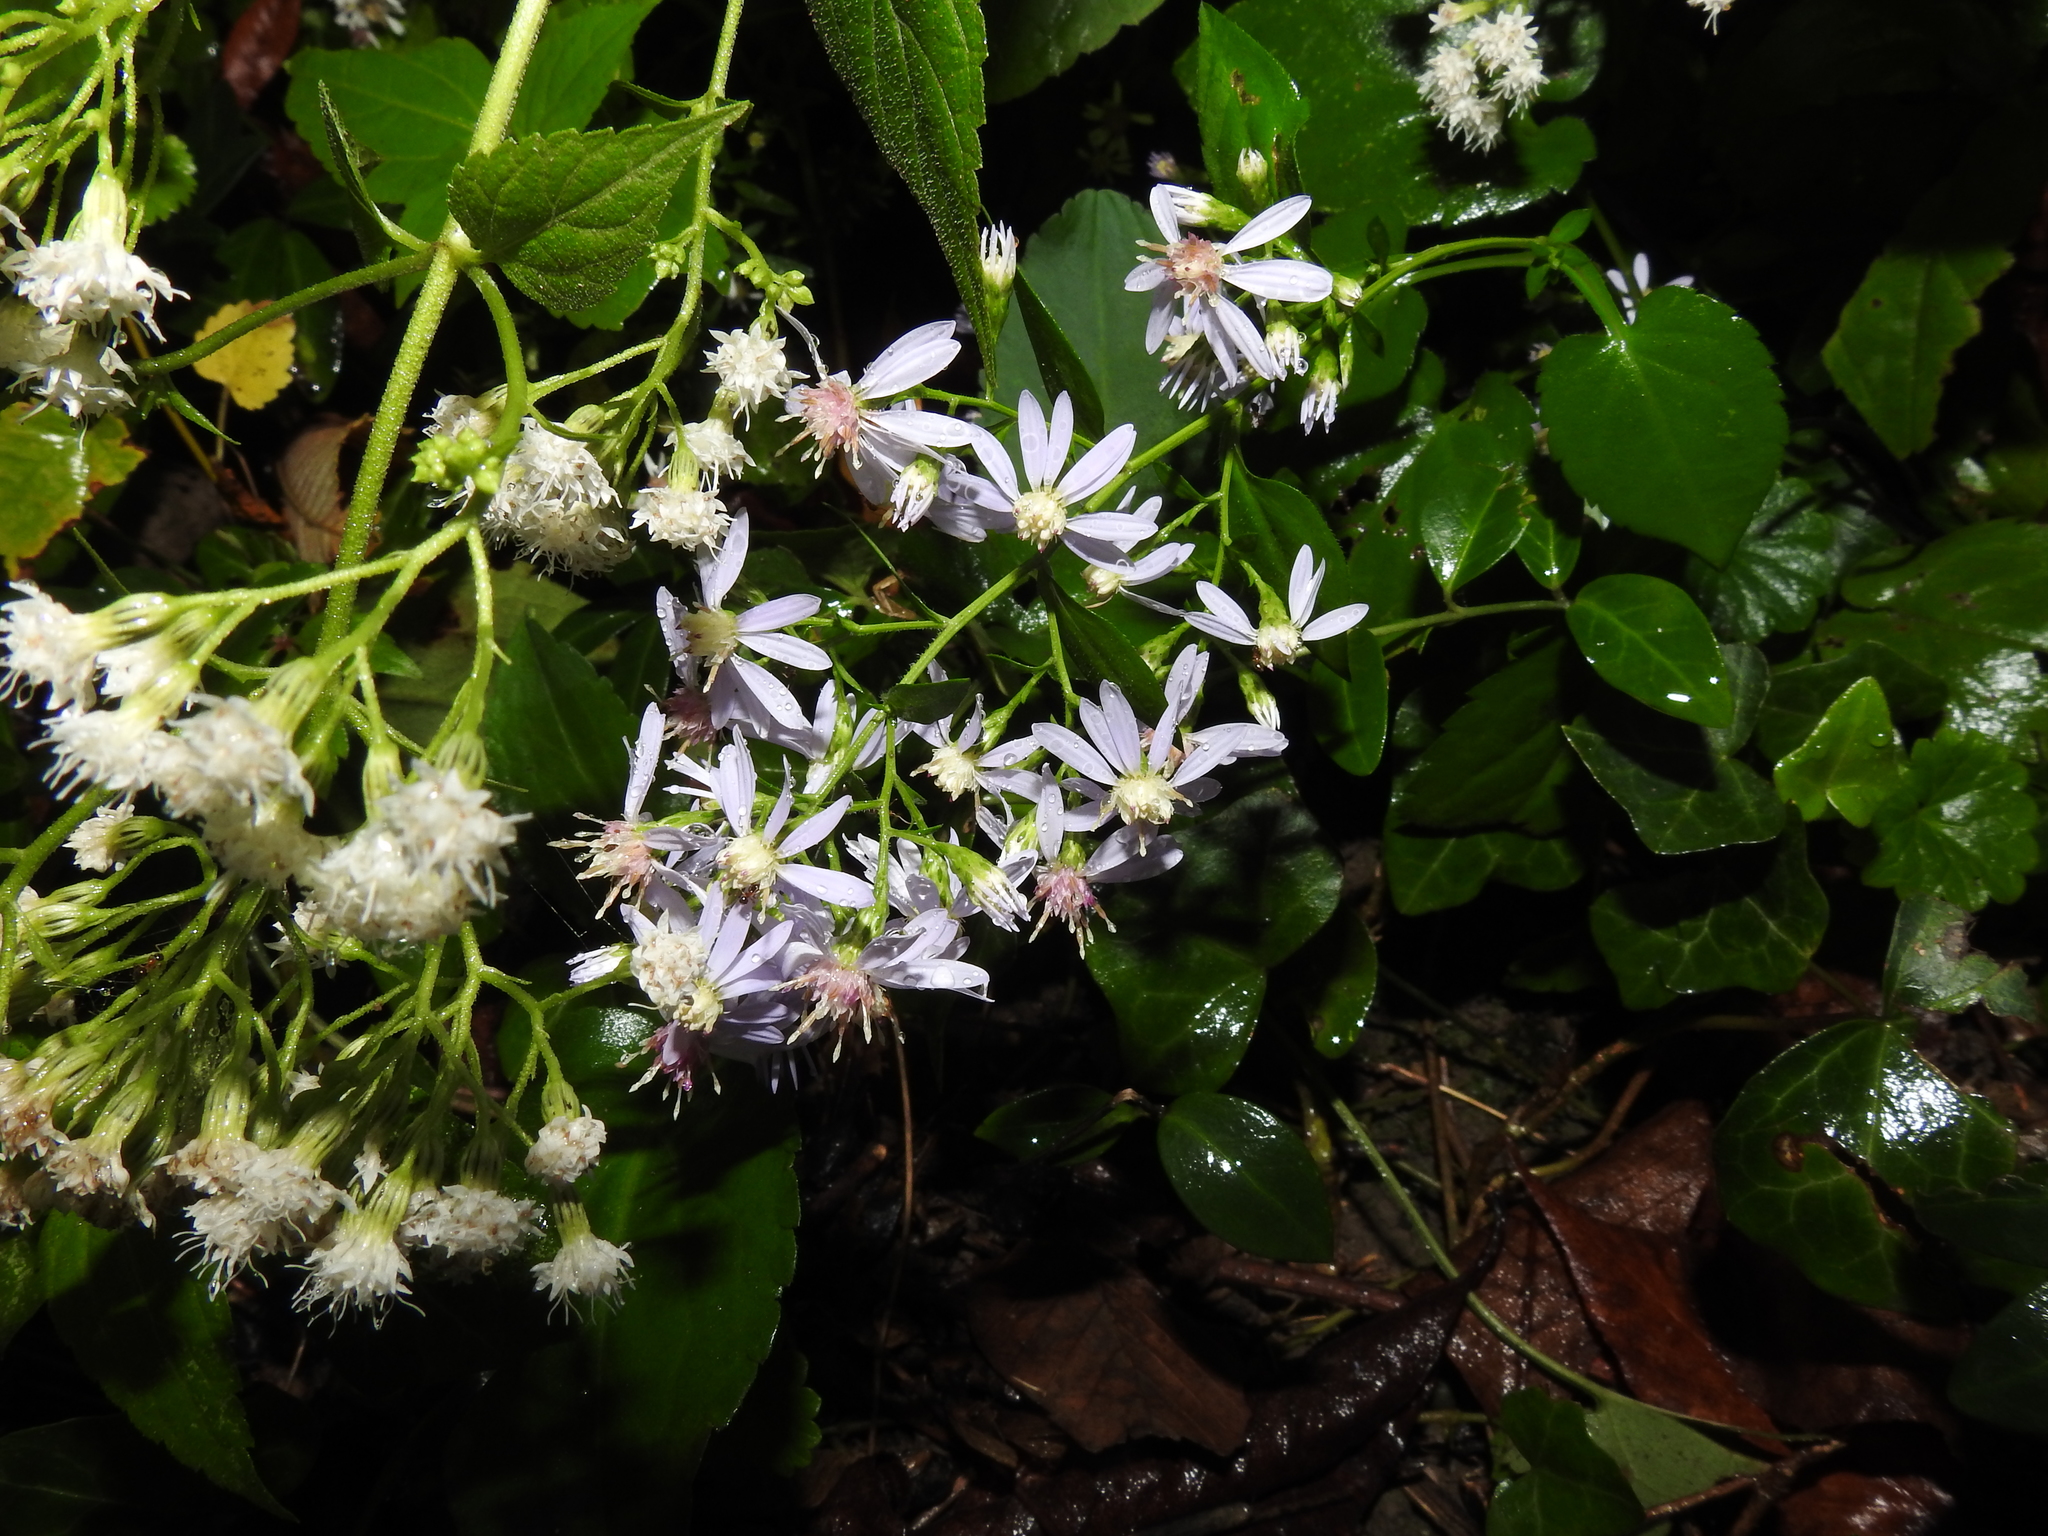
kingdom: Plantae
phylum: Tracheophyta
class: Magnoliopsida
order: Asterales
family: Asteraceae
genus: Symphyotrichum
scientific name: Symphyotrichum cordifolium
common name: Beeweed
